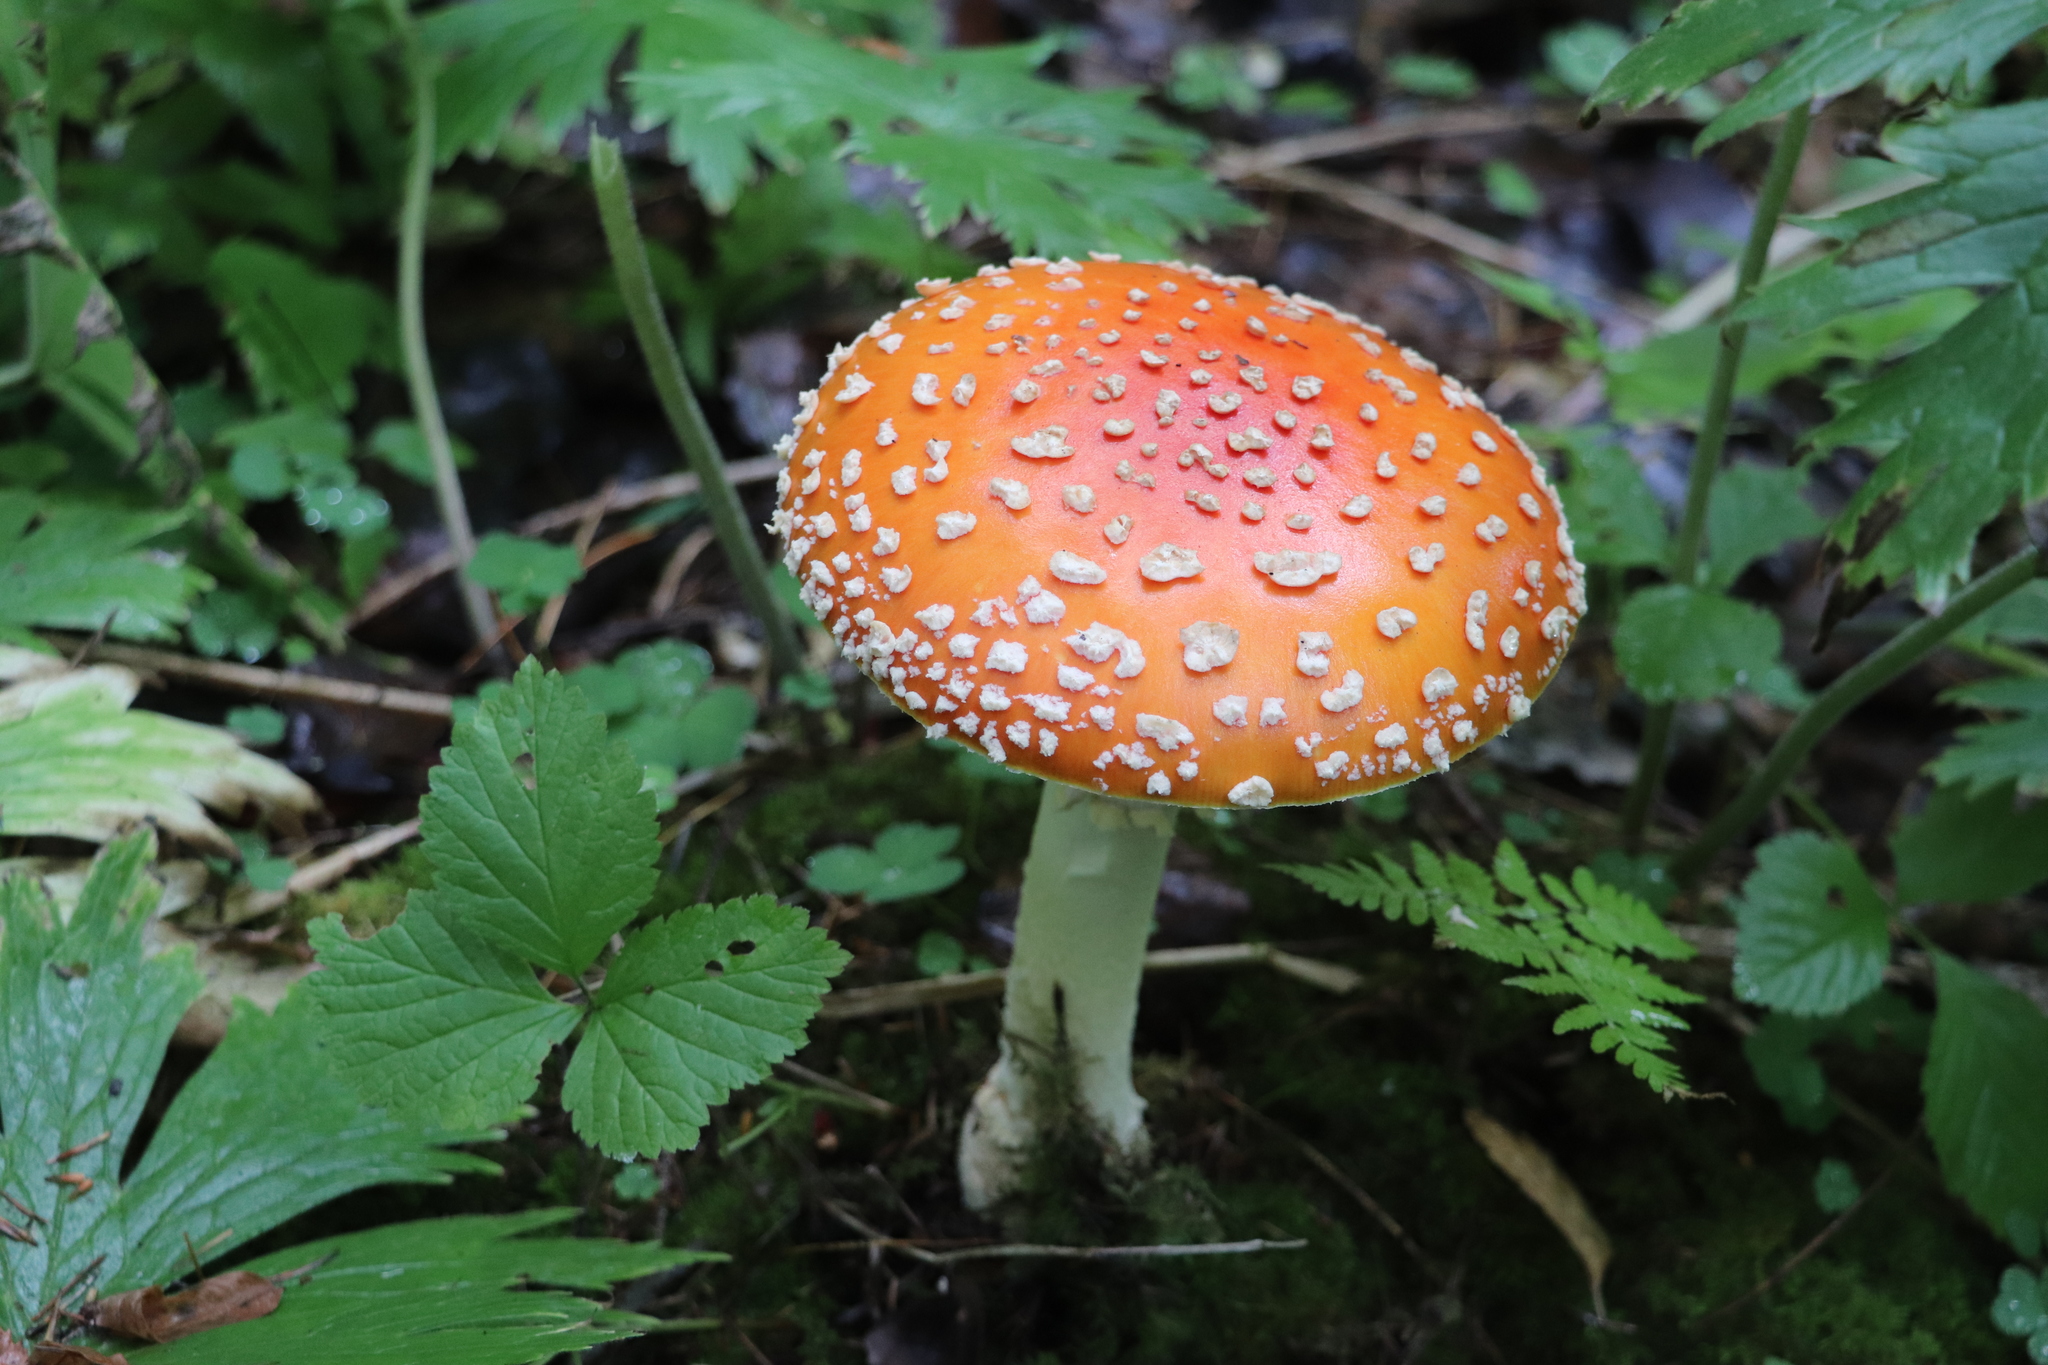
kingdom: Fungi
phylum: Basidiomycota
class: Agaricomycetes
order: Agaricales
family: Amanitaceae
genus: Amanita
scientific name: Amanita muscaria
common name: Fly agaric
